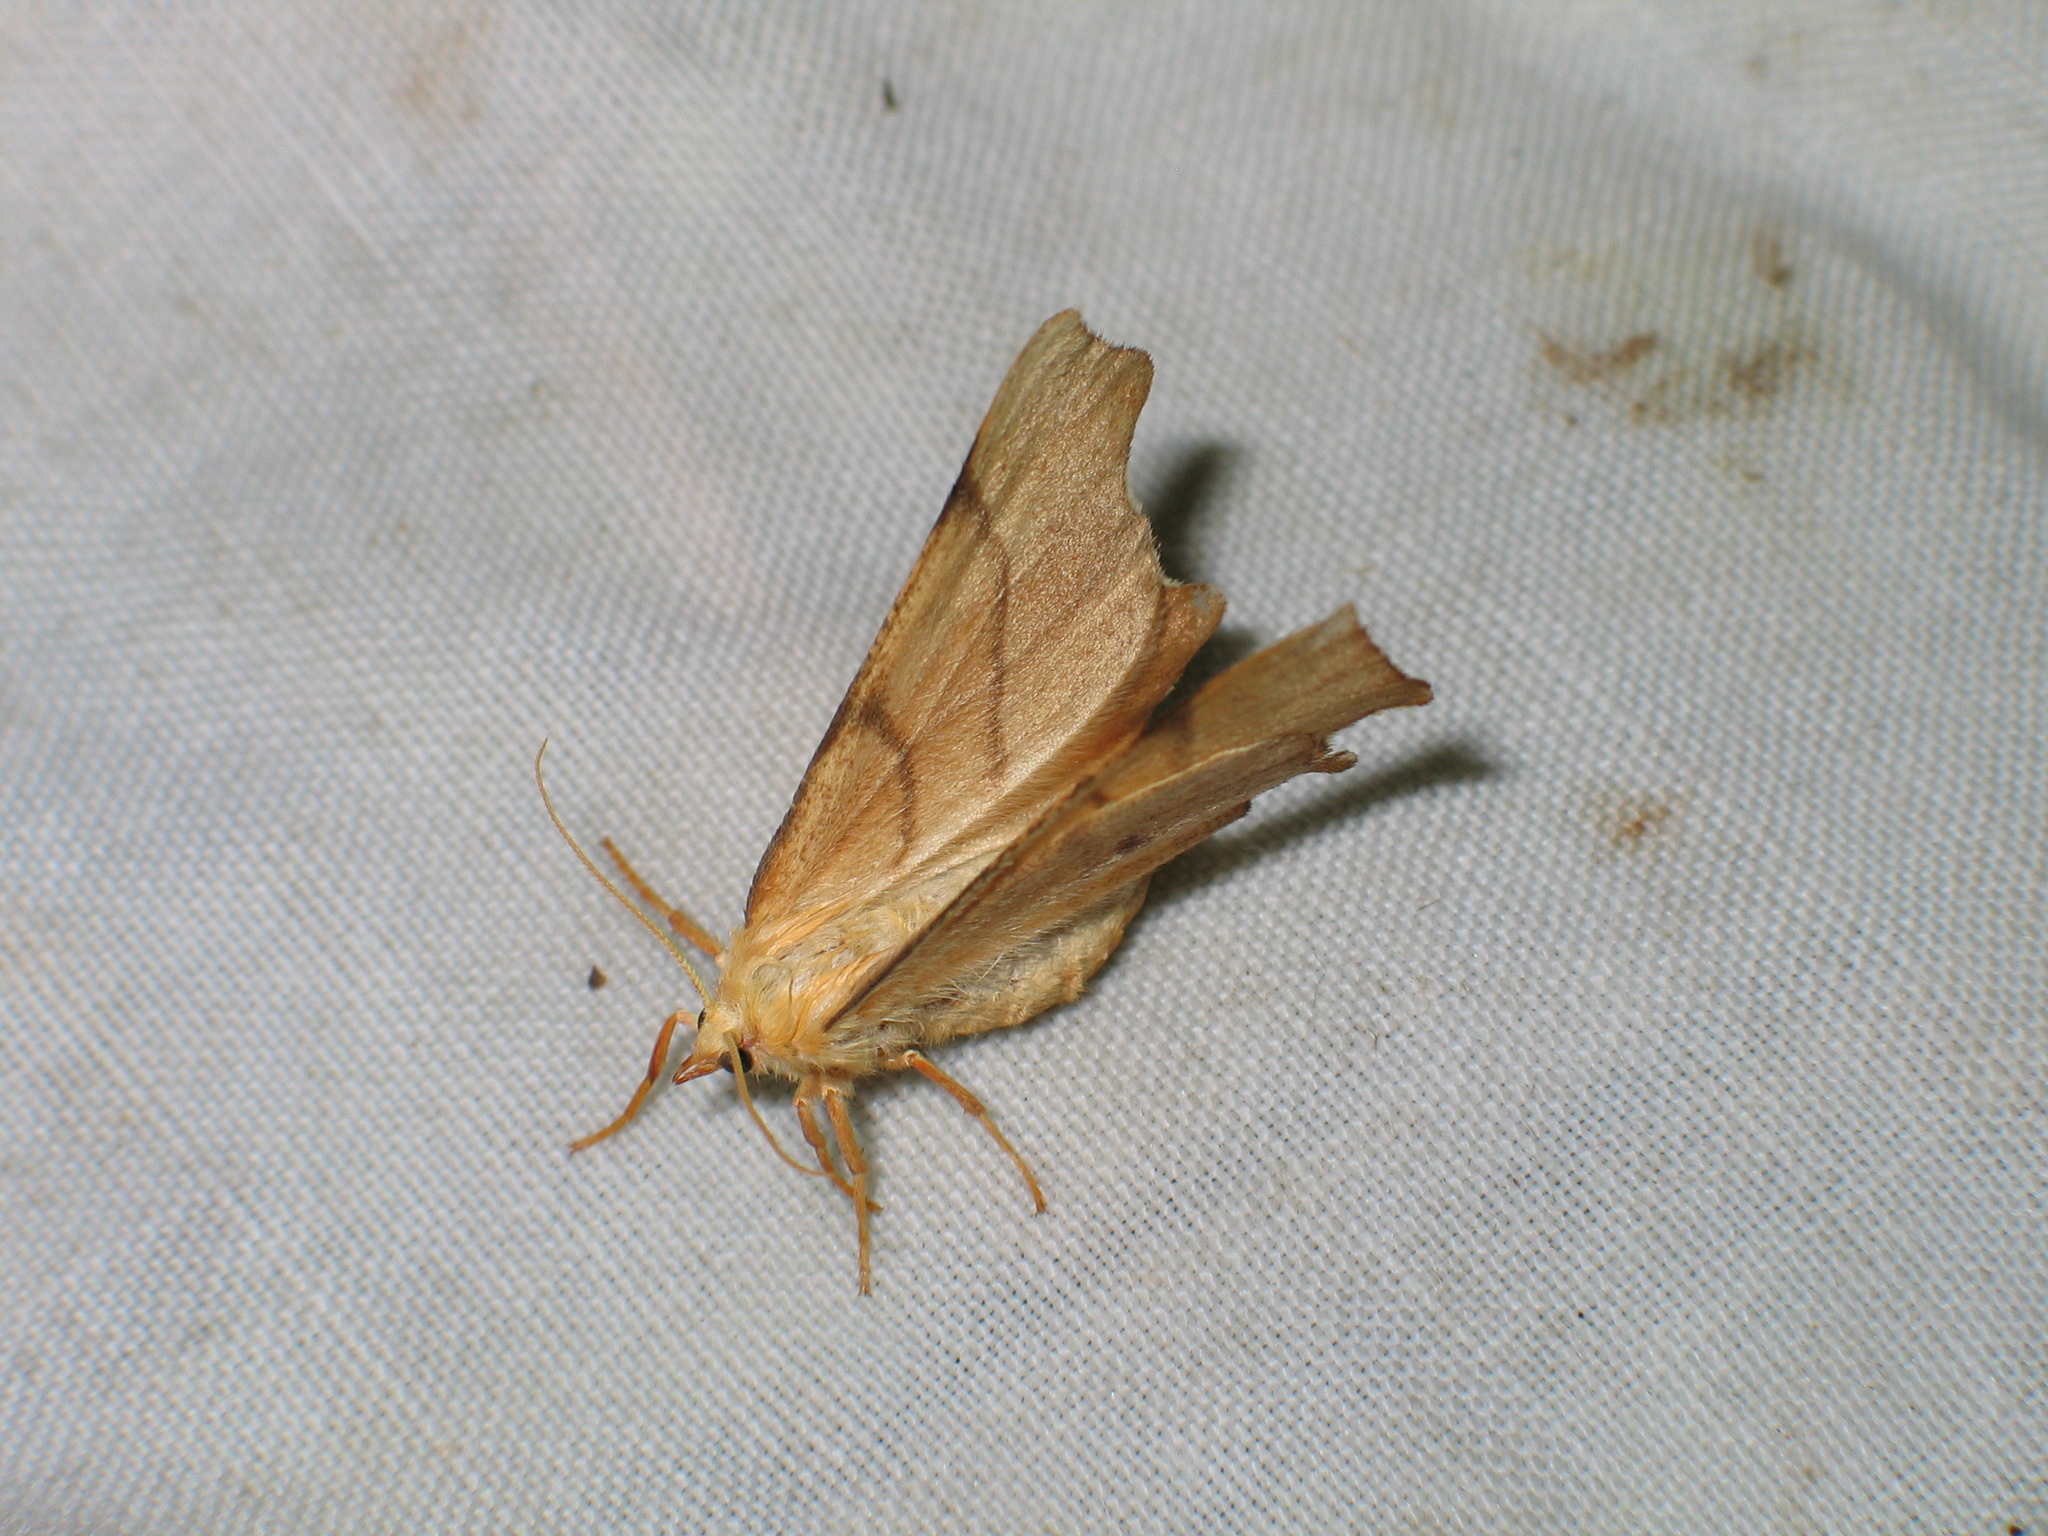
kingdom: Animalia
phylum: Arthropoda
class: Insecta
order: Lepidoptera
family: Geometridae
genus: Ennomos
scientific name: Ennomos erosaria
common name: September thorn
